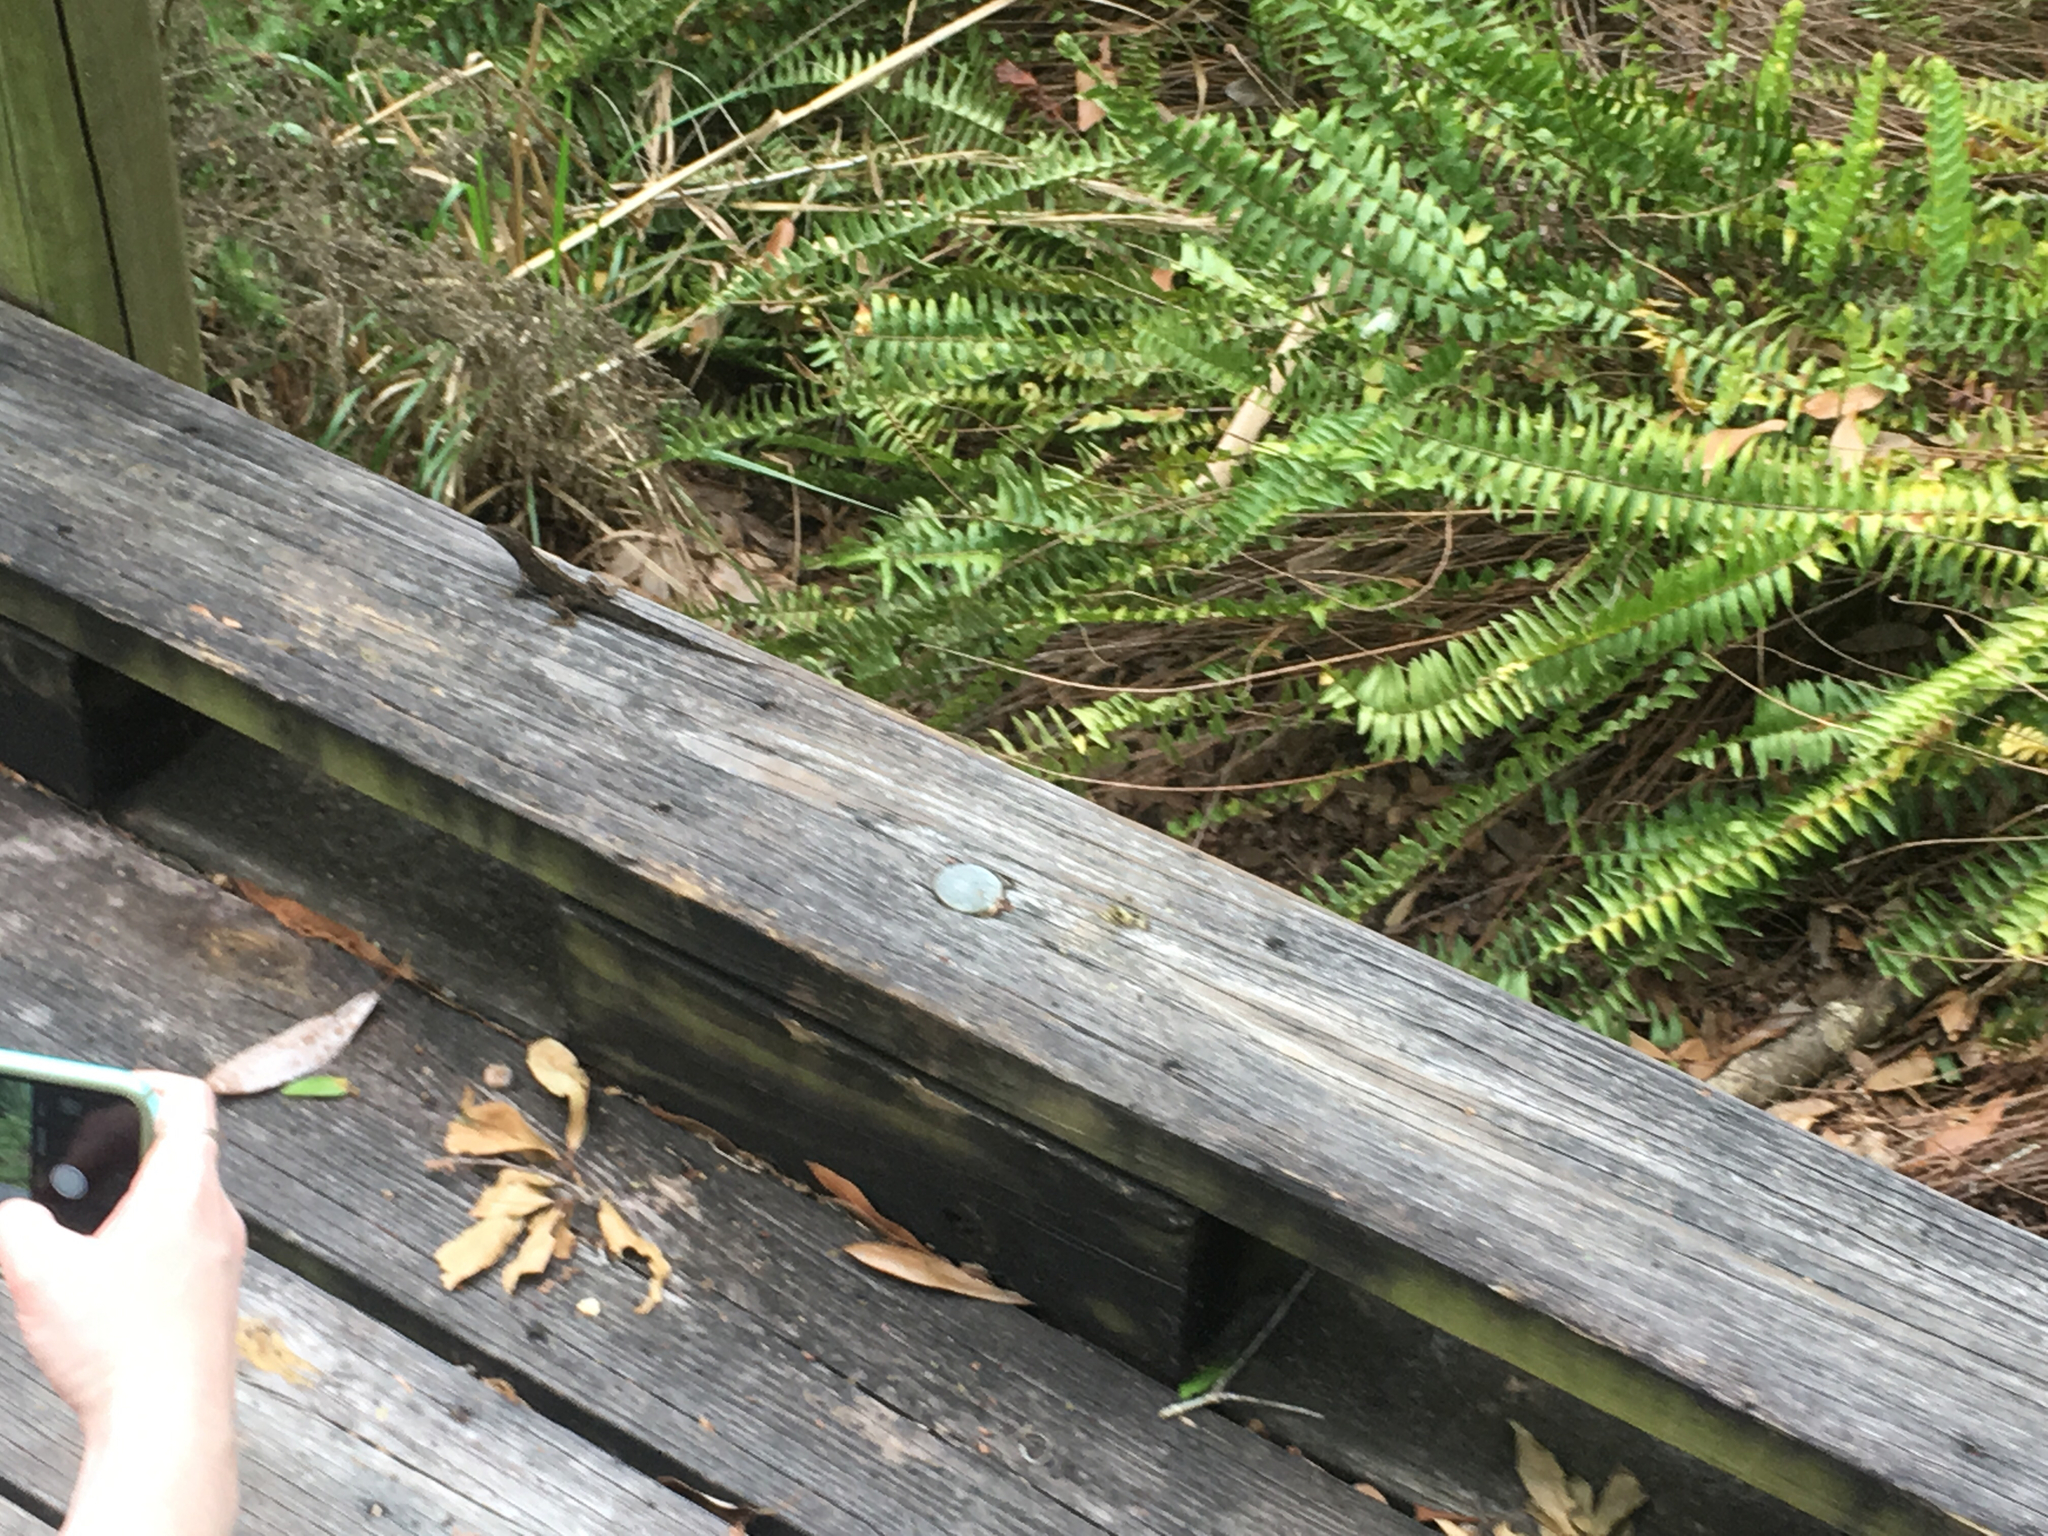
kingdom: Animalia
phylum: Chordata
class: Squamata
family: Dactyloidae
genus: Anolis
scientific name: Anolis sagrei
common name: Brown anole
